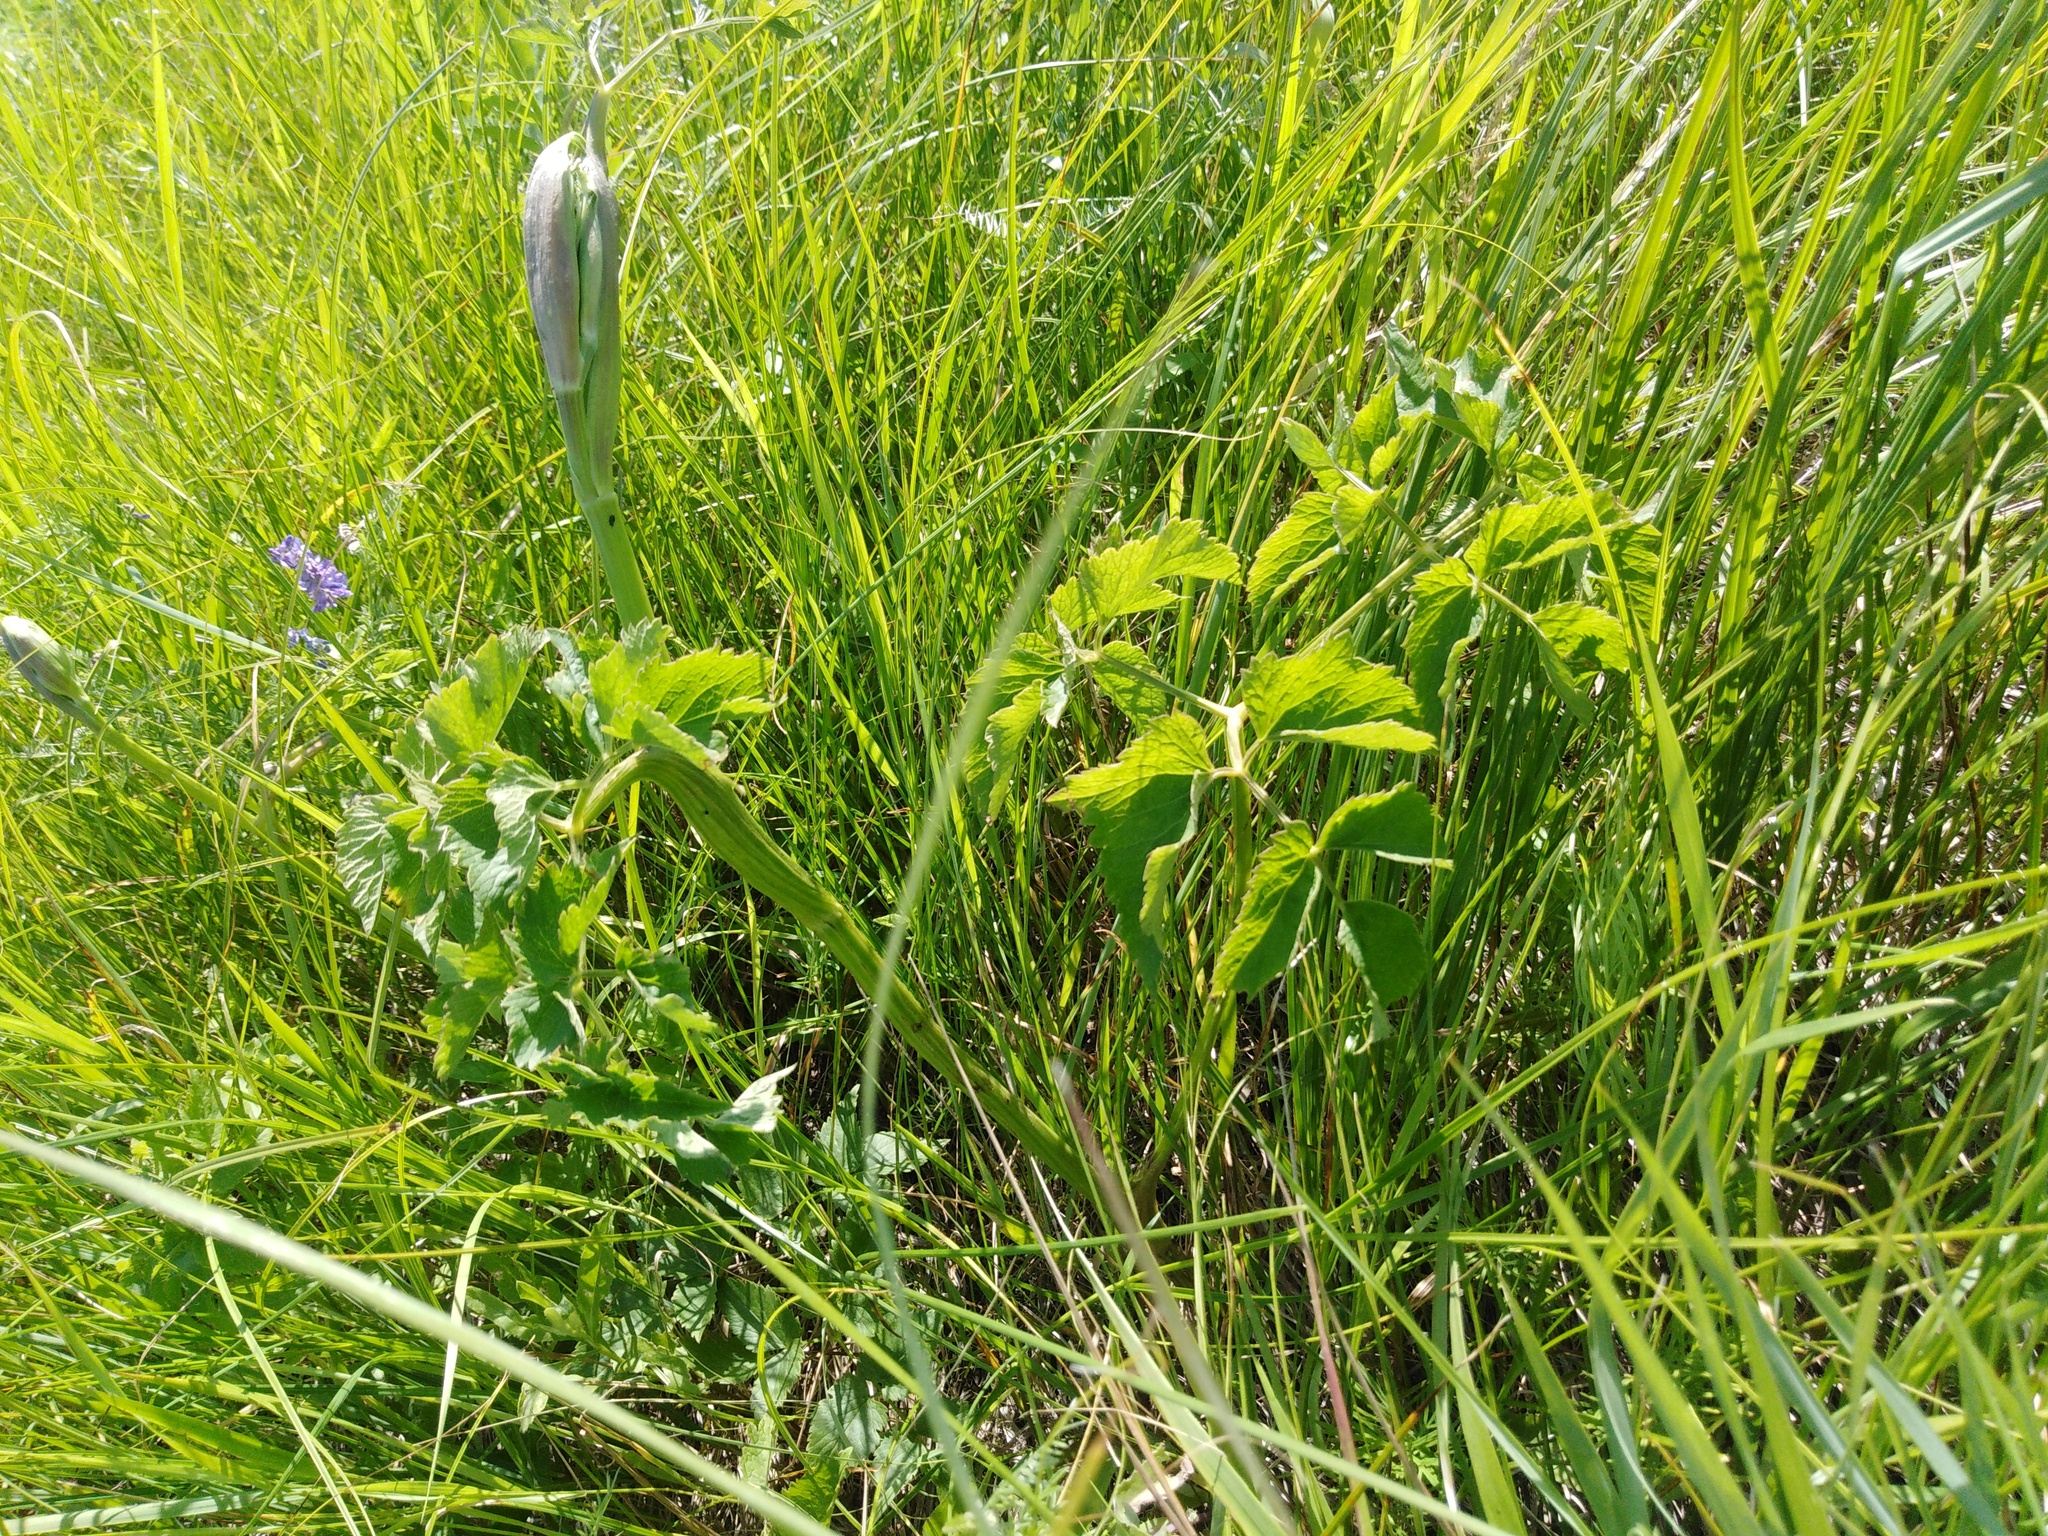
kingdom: Plantae
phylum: Tracheophyta
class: Magnoliopsida
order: Apiales
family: Apiaceae
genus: Ostericum
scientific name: Ostericum palustre
